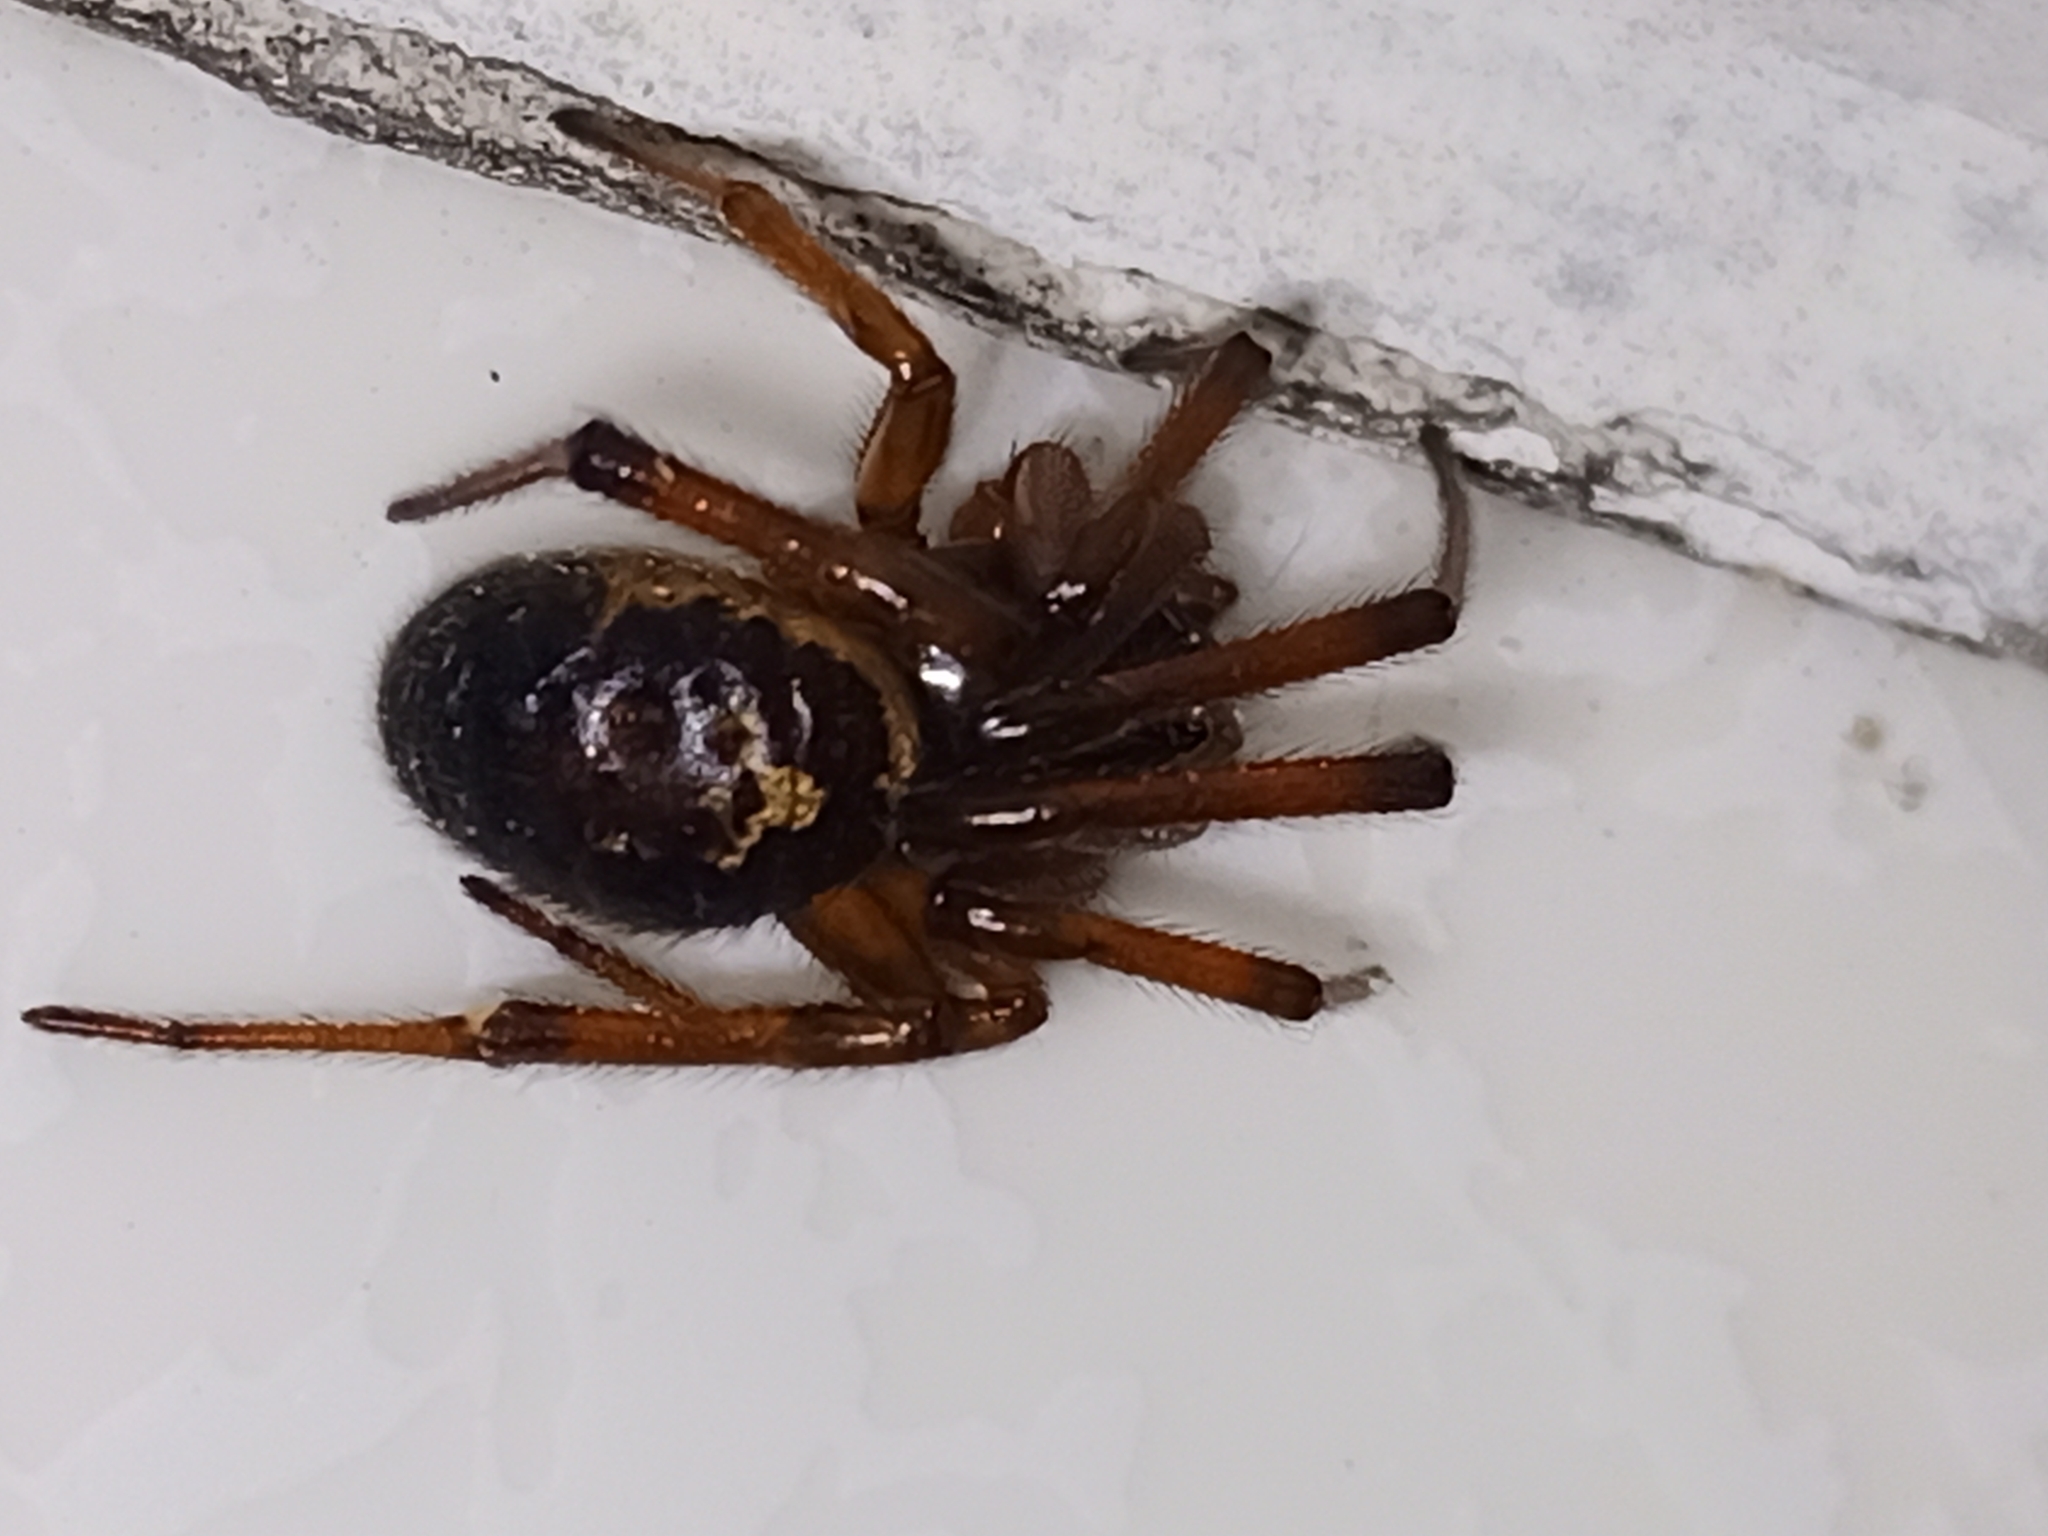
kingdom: Animalia
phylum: Arthropoda
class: Arachnida
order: Araneae
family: Theridiidae
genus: Steatoda
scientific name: Steatoda nobilis
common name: Cobweb weaver
